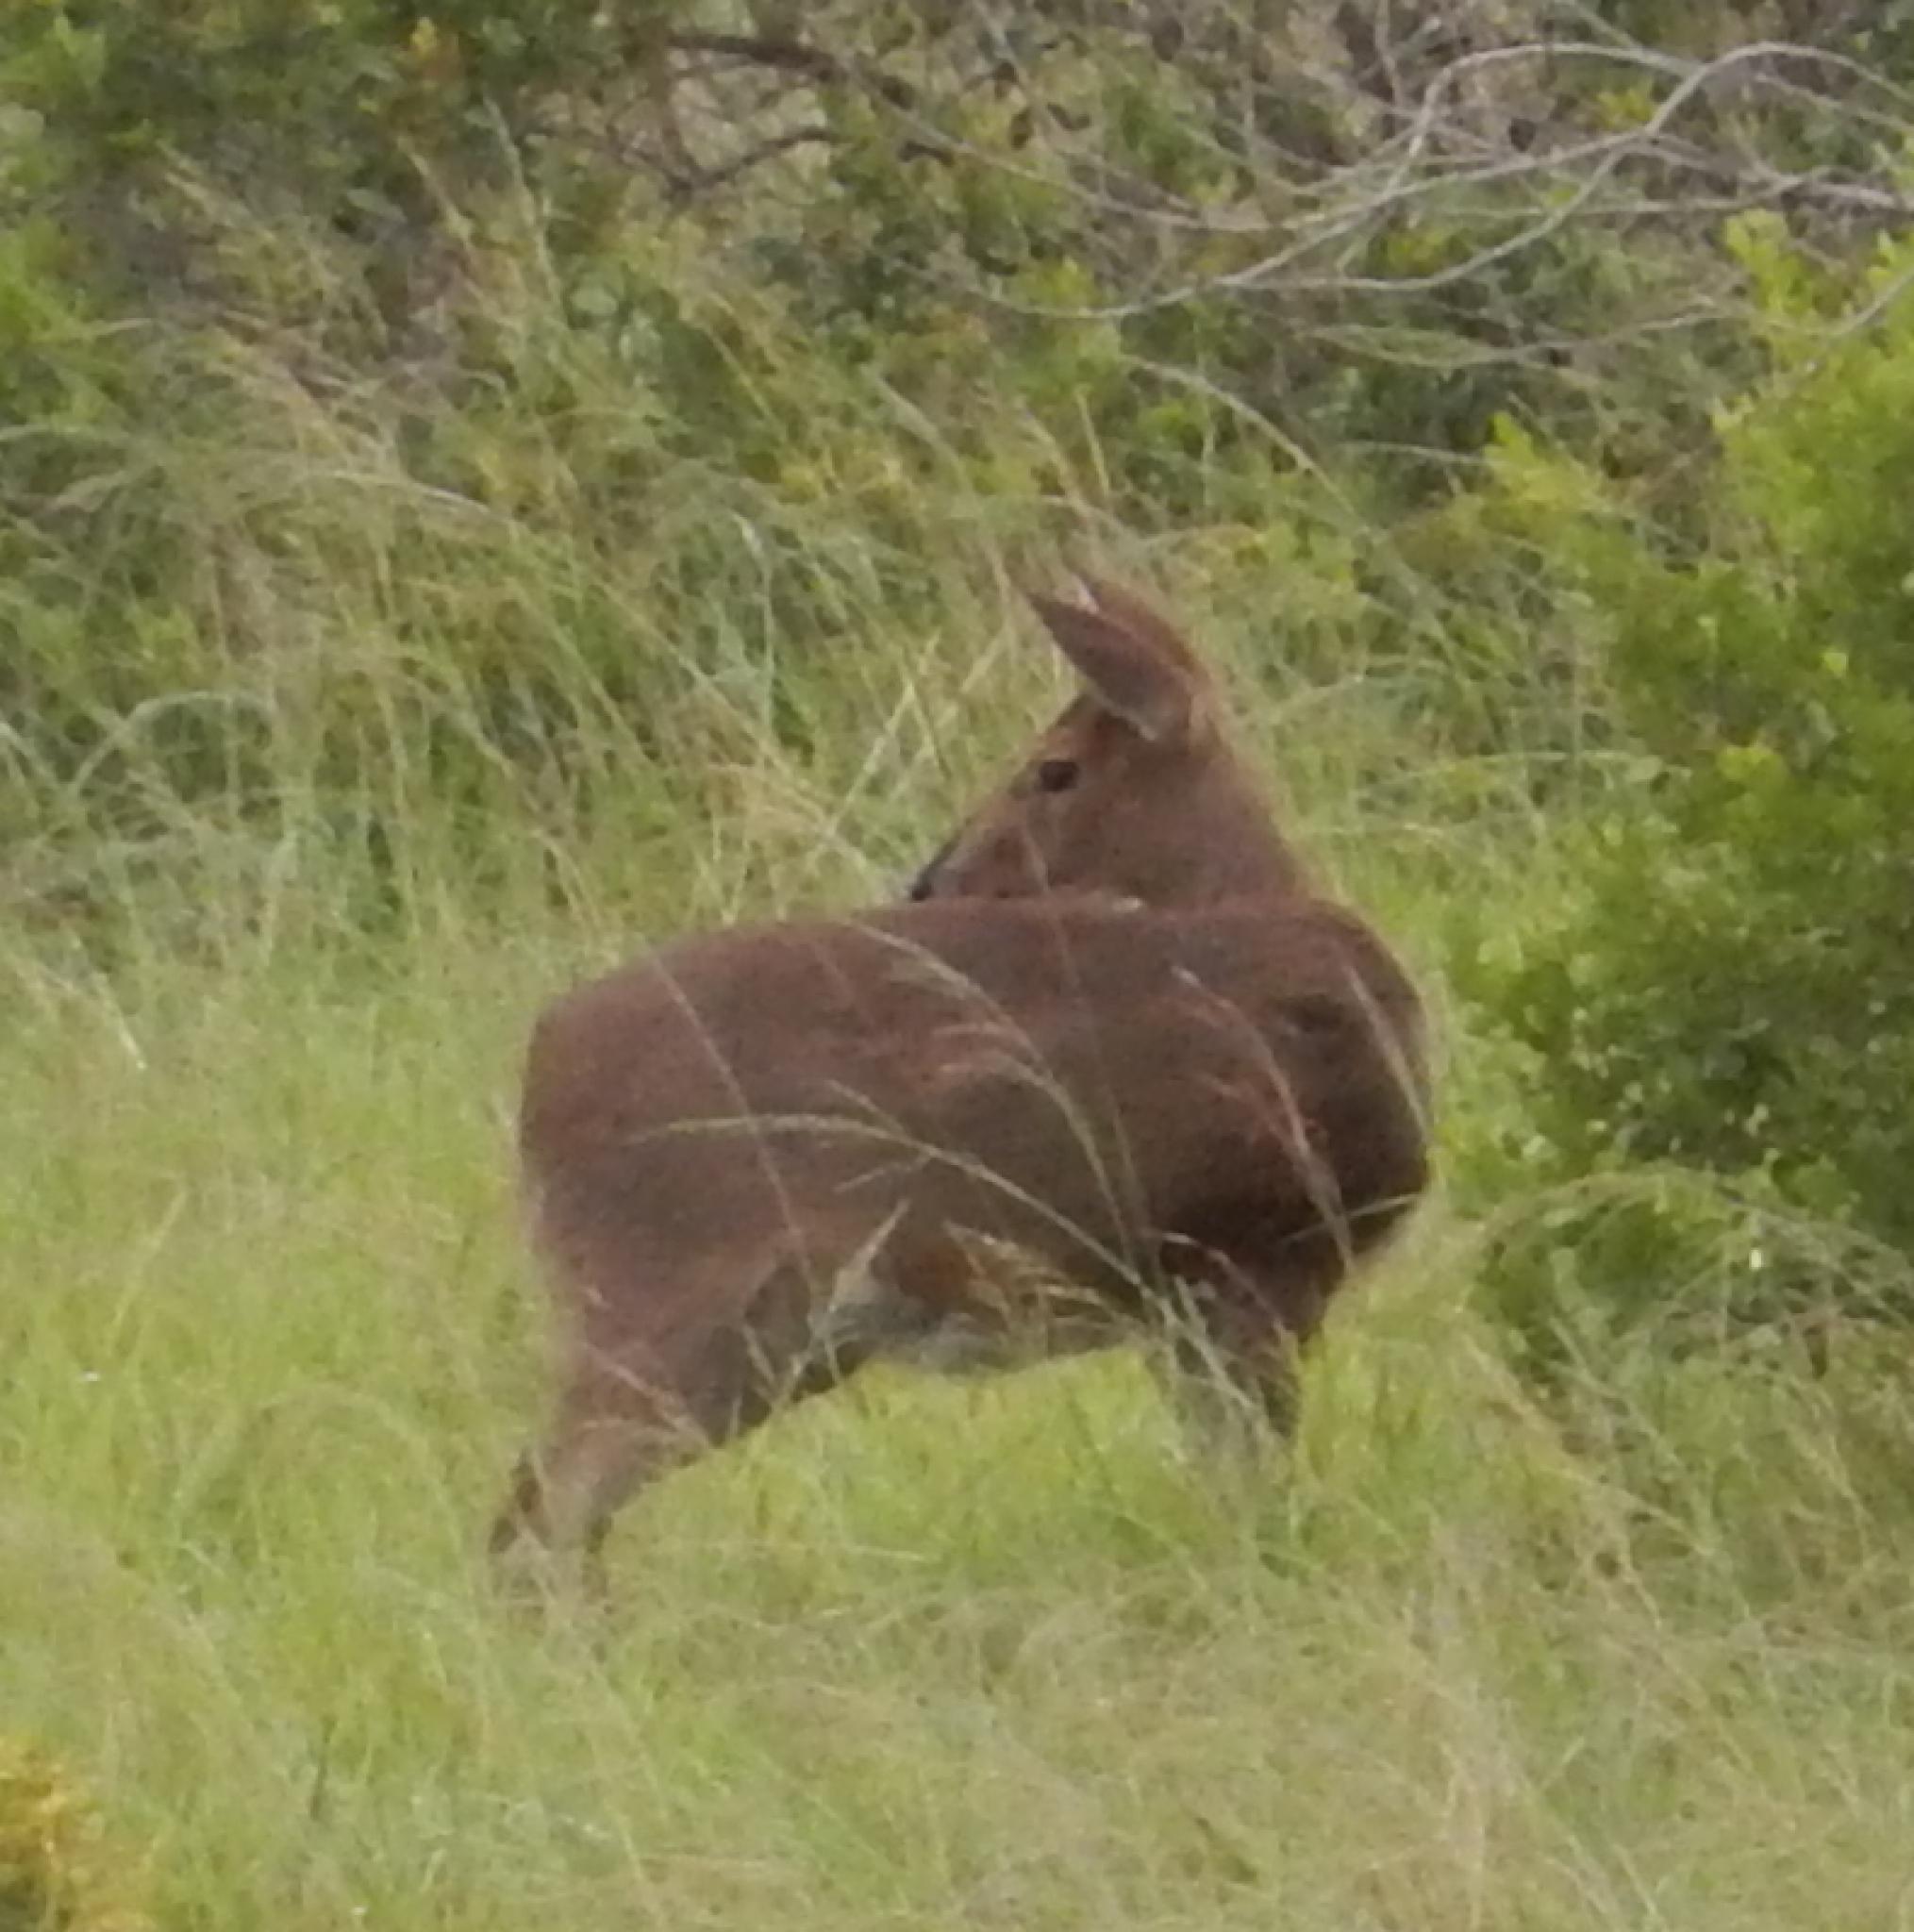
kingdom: Animalia
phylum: Chordata
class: Mammalia
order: Artiodactyla
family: Bovidae
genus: Sylvicapra
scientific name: Sylvicapra grimmia
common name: Bush duiker
